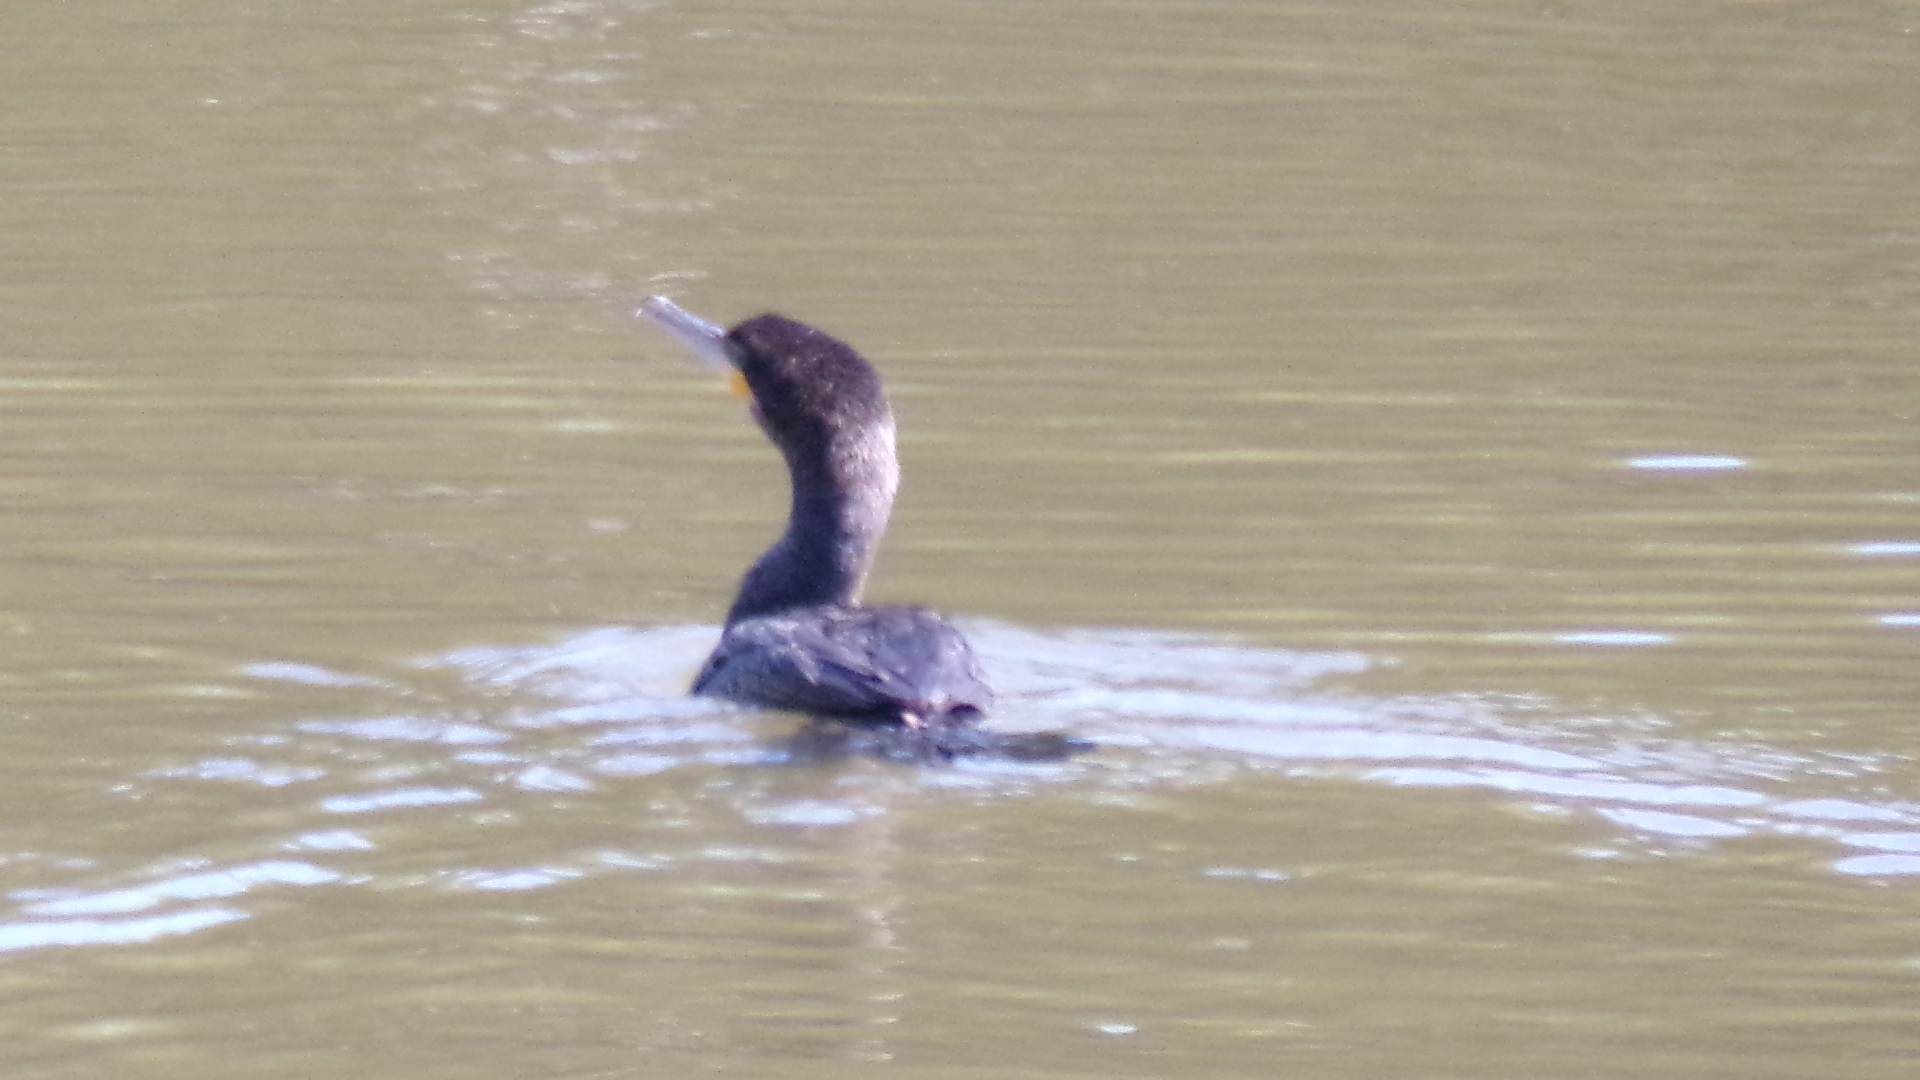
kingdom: Animalia
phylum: Chordata
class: Aves
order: Suliformes
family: Phalacrocoracidae
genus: Phalacrocorax
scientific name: Phalacrocorax brasilianus
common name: Neotropic cormorant
